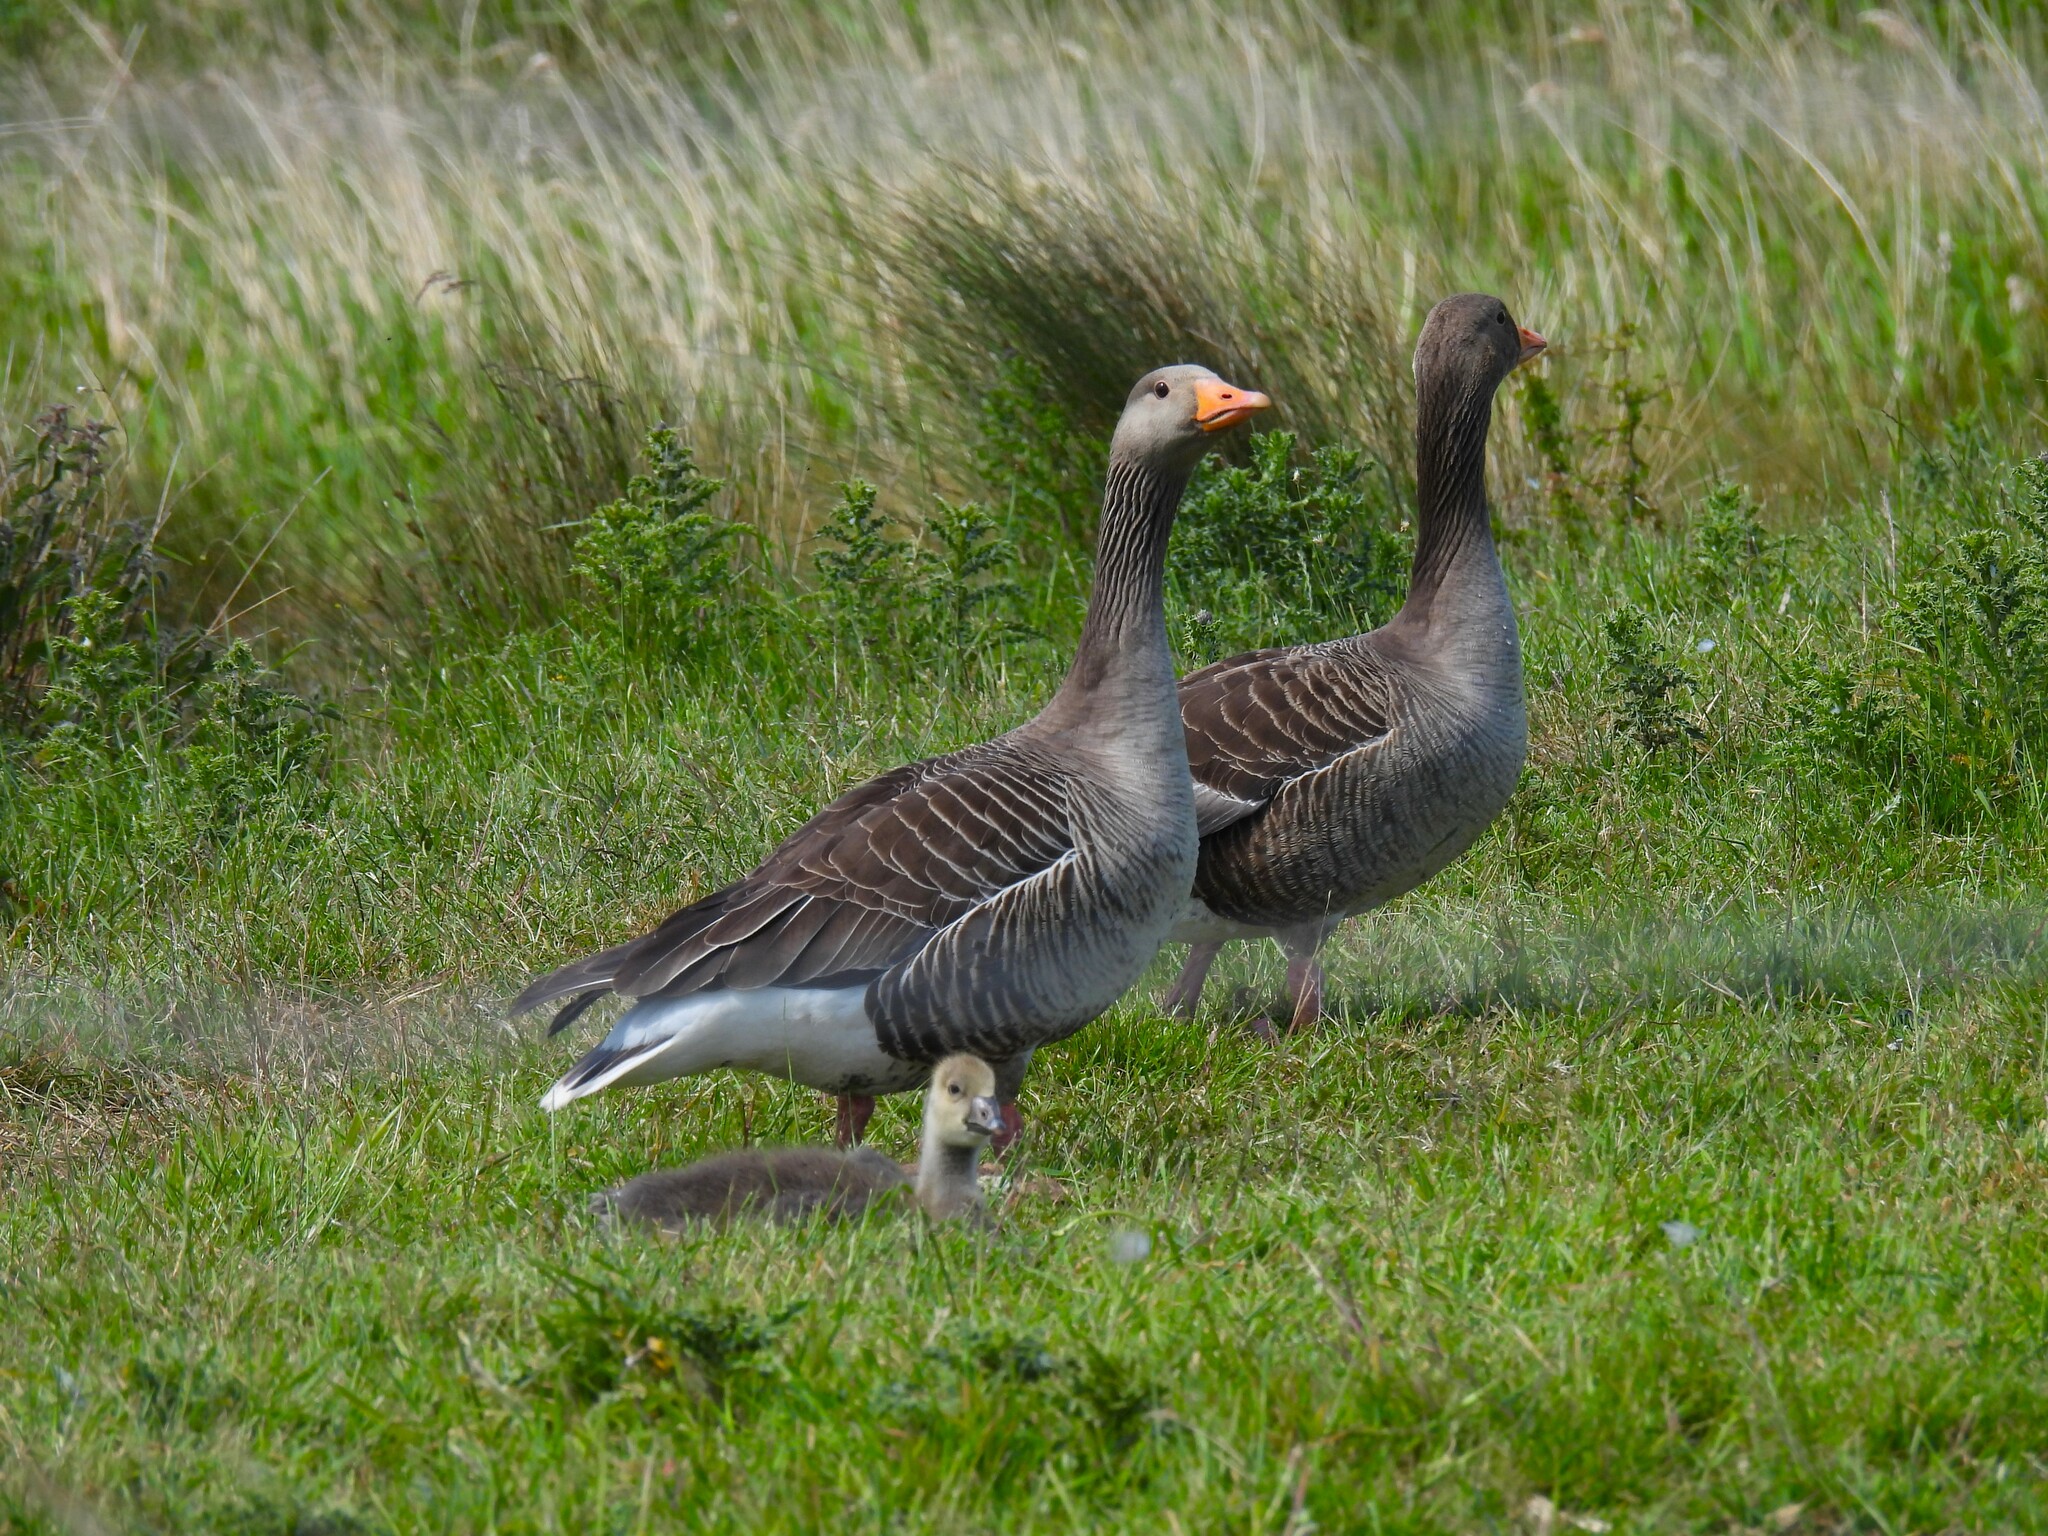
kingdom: Animalia
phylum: Chordata
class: Aves
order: Anseriformes
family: Anatidae
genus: Anser
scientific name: Anser anser
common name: Greylag goose
